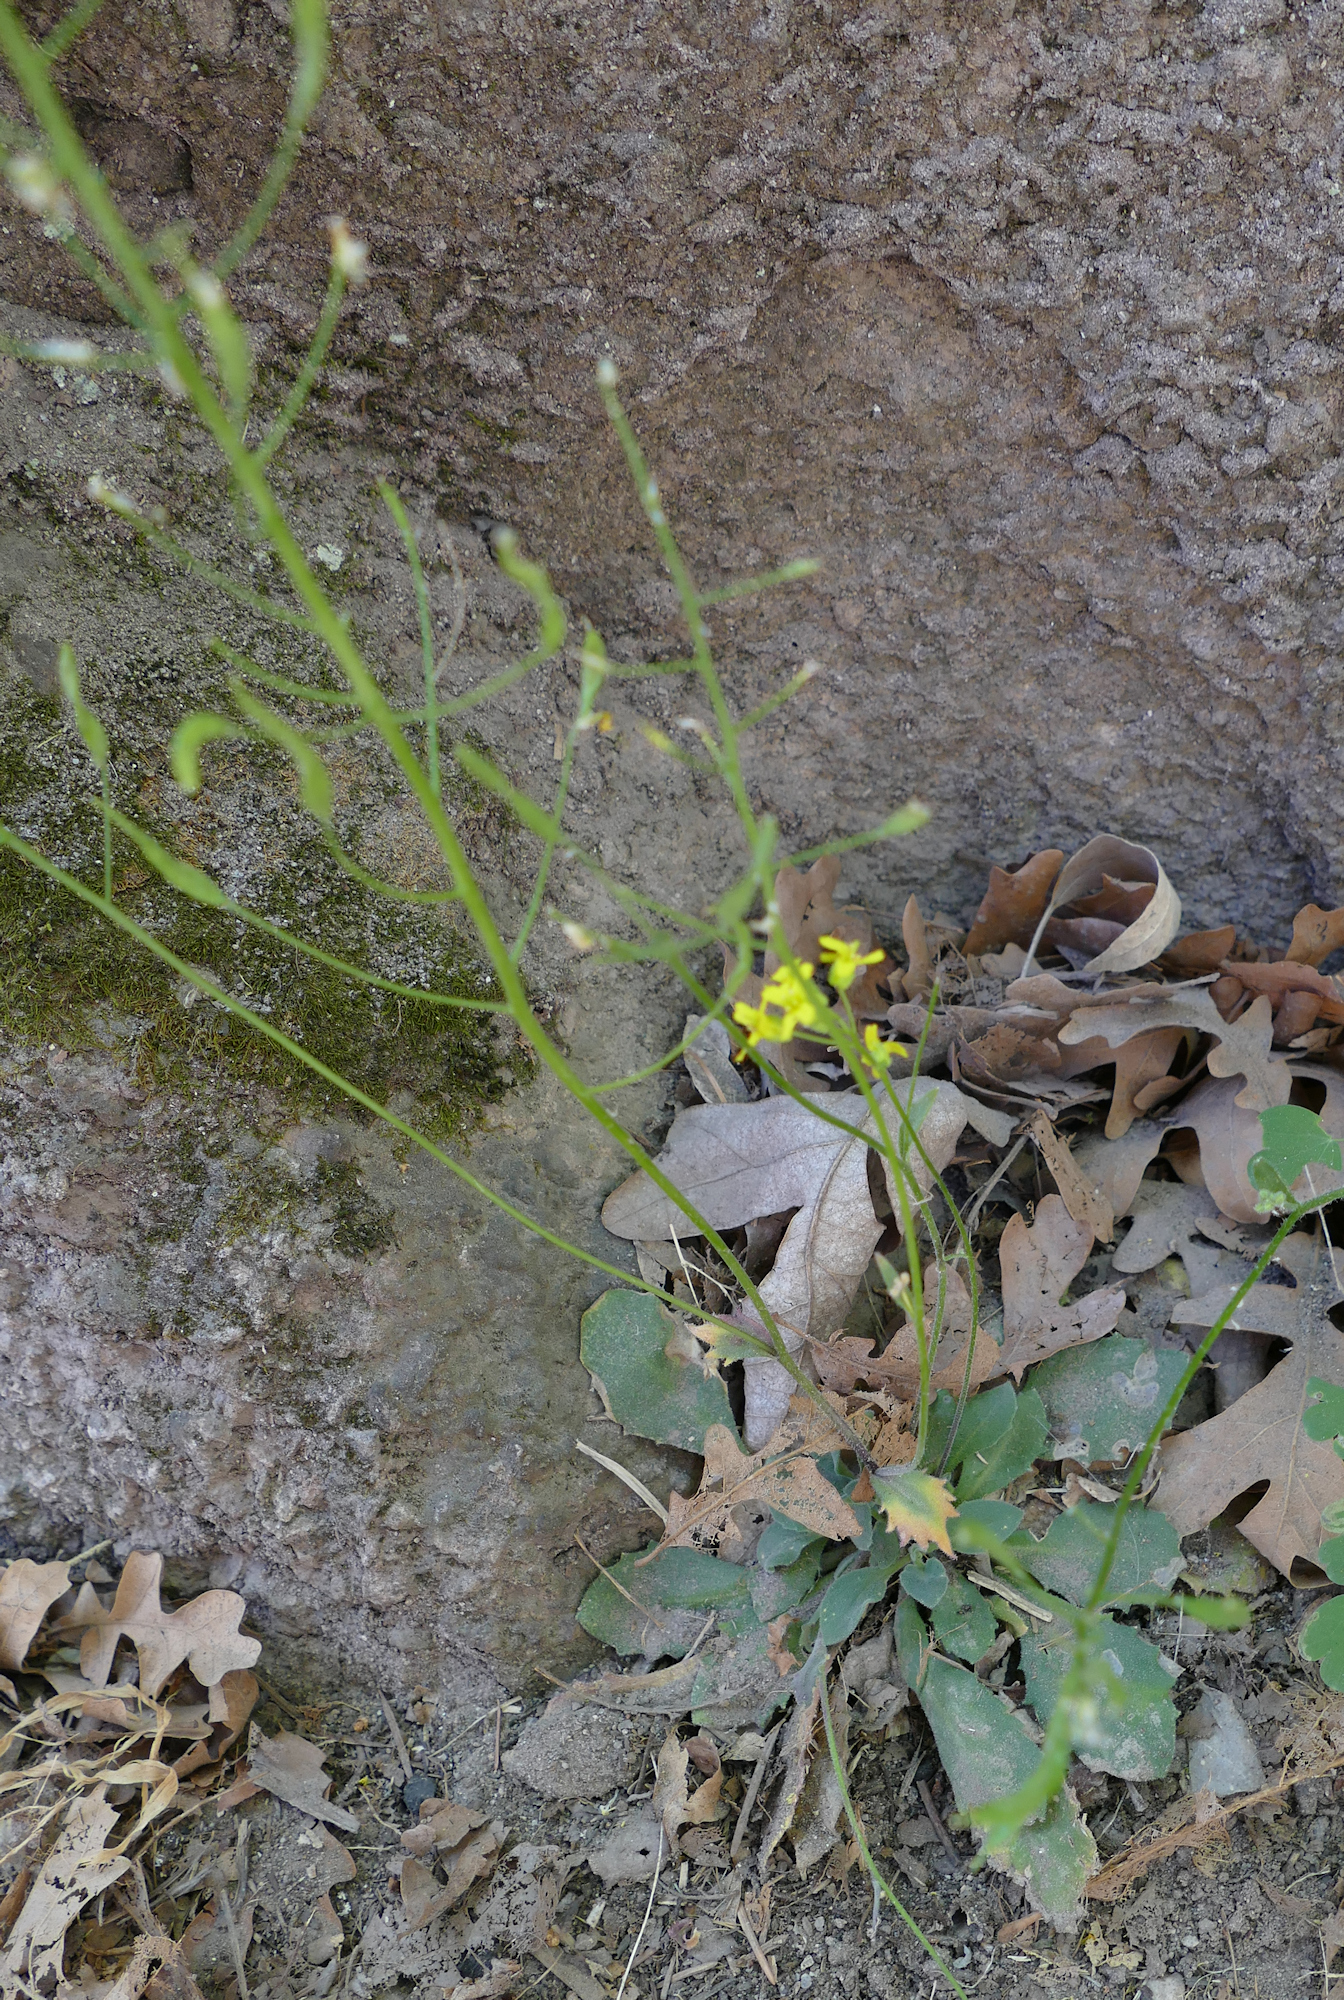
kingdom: Plantae
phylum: Tracheophyta
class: Magnoliopsida
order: Brassicales
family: Brassicaceae
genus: Draba
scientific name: Draba mogollonica
